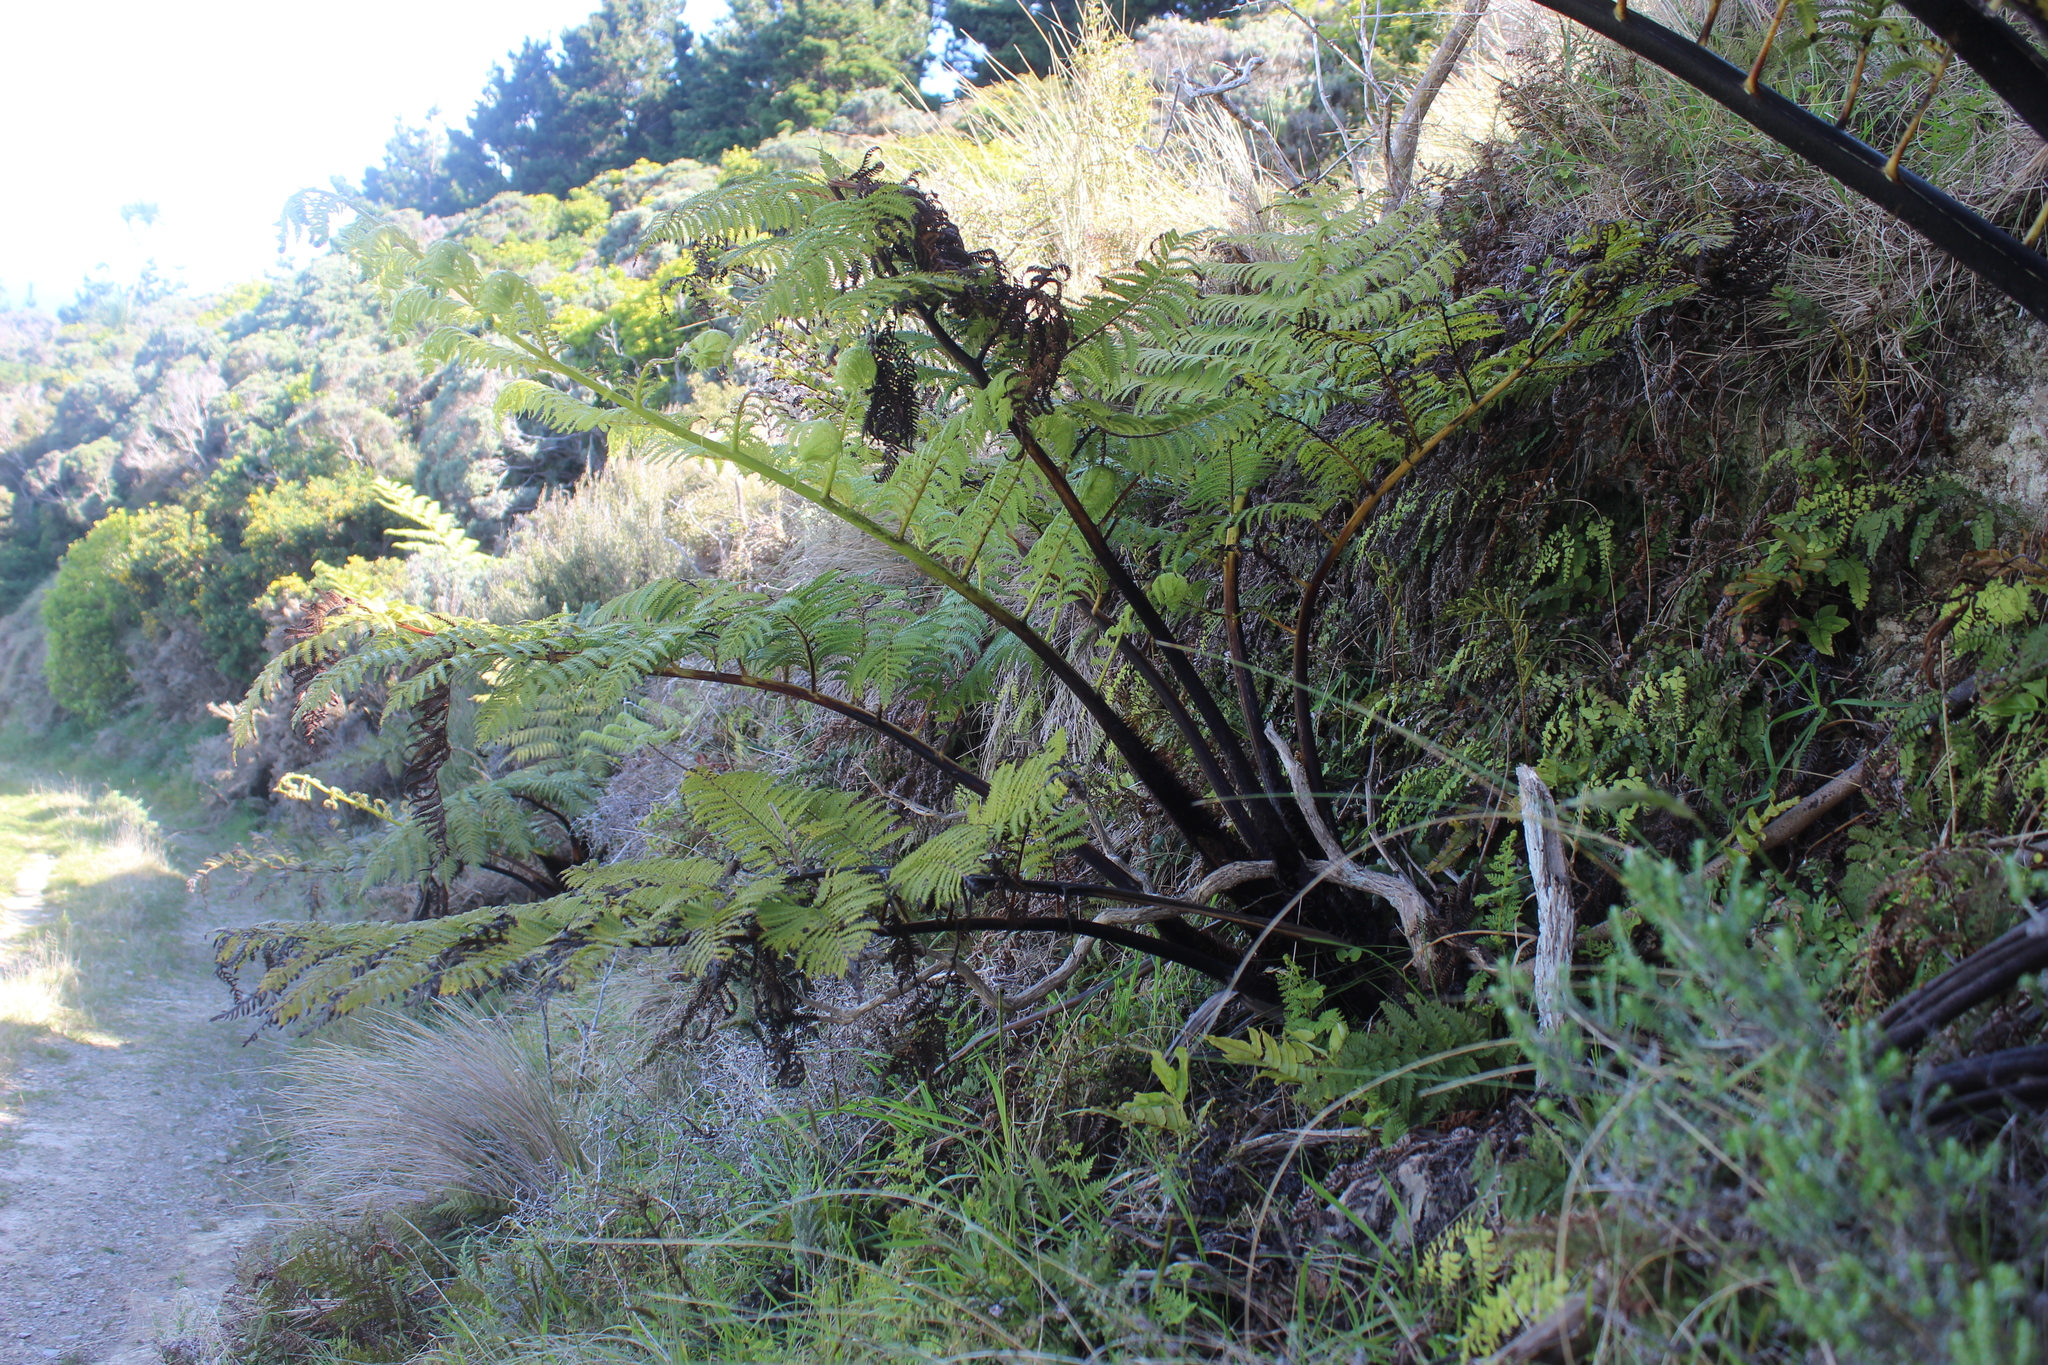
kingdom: Plantae
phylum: Tracheophyta
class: Polypodiopsida
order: Cyatheales
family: Cyatheaceae
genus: Sphaeropteris
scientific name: Sphaeropteris medullaris
